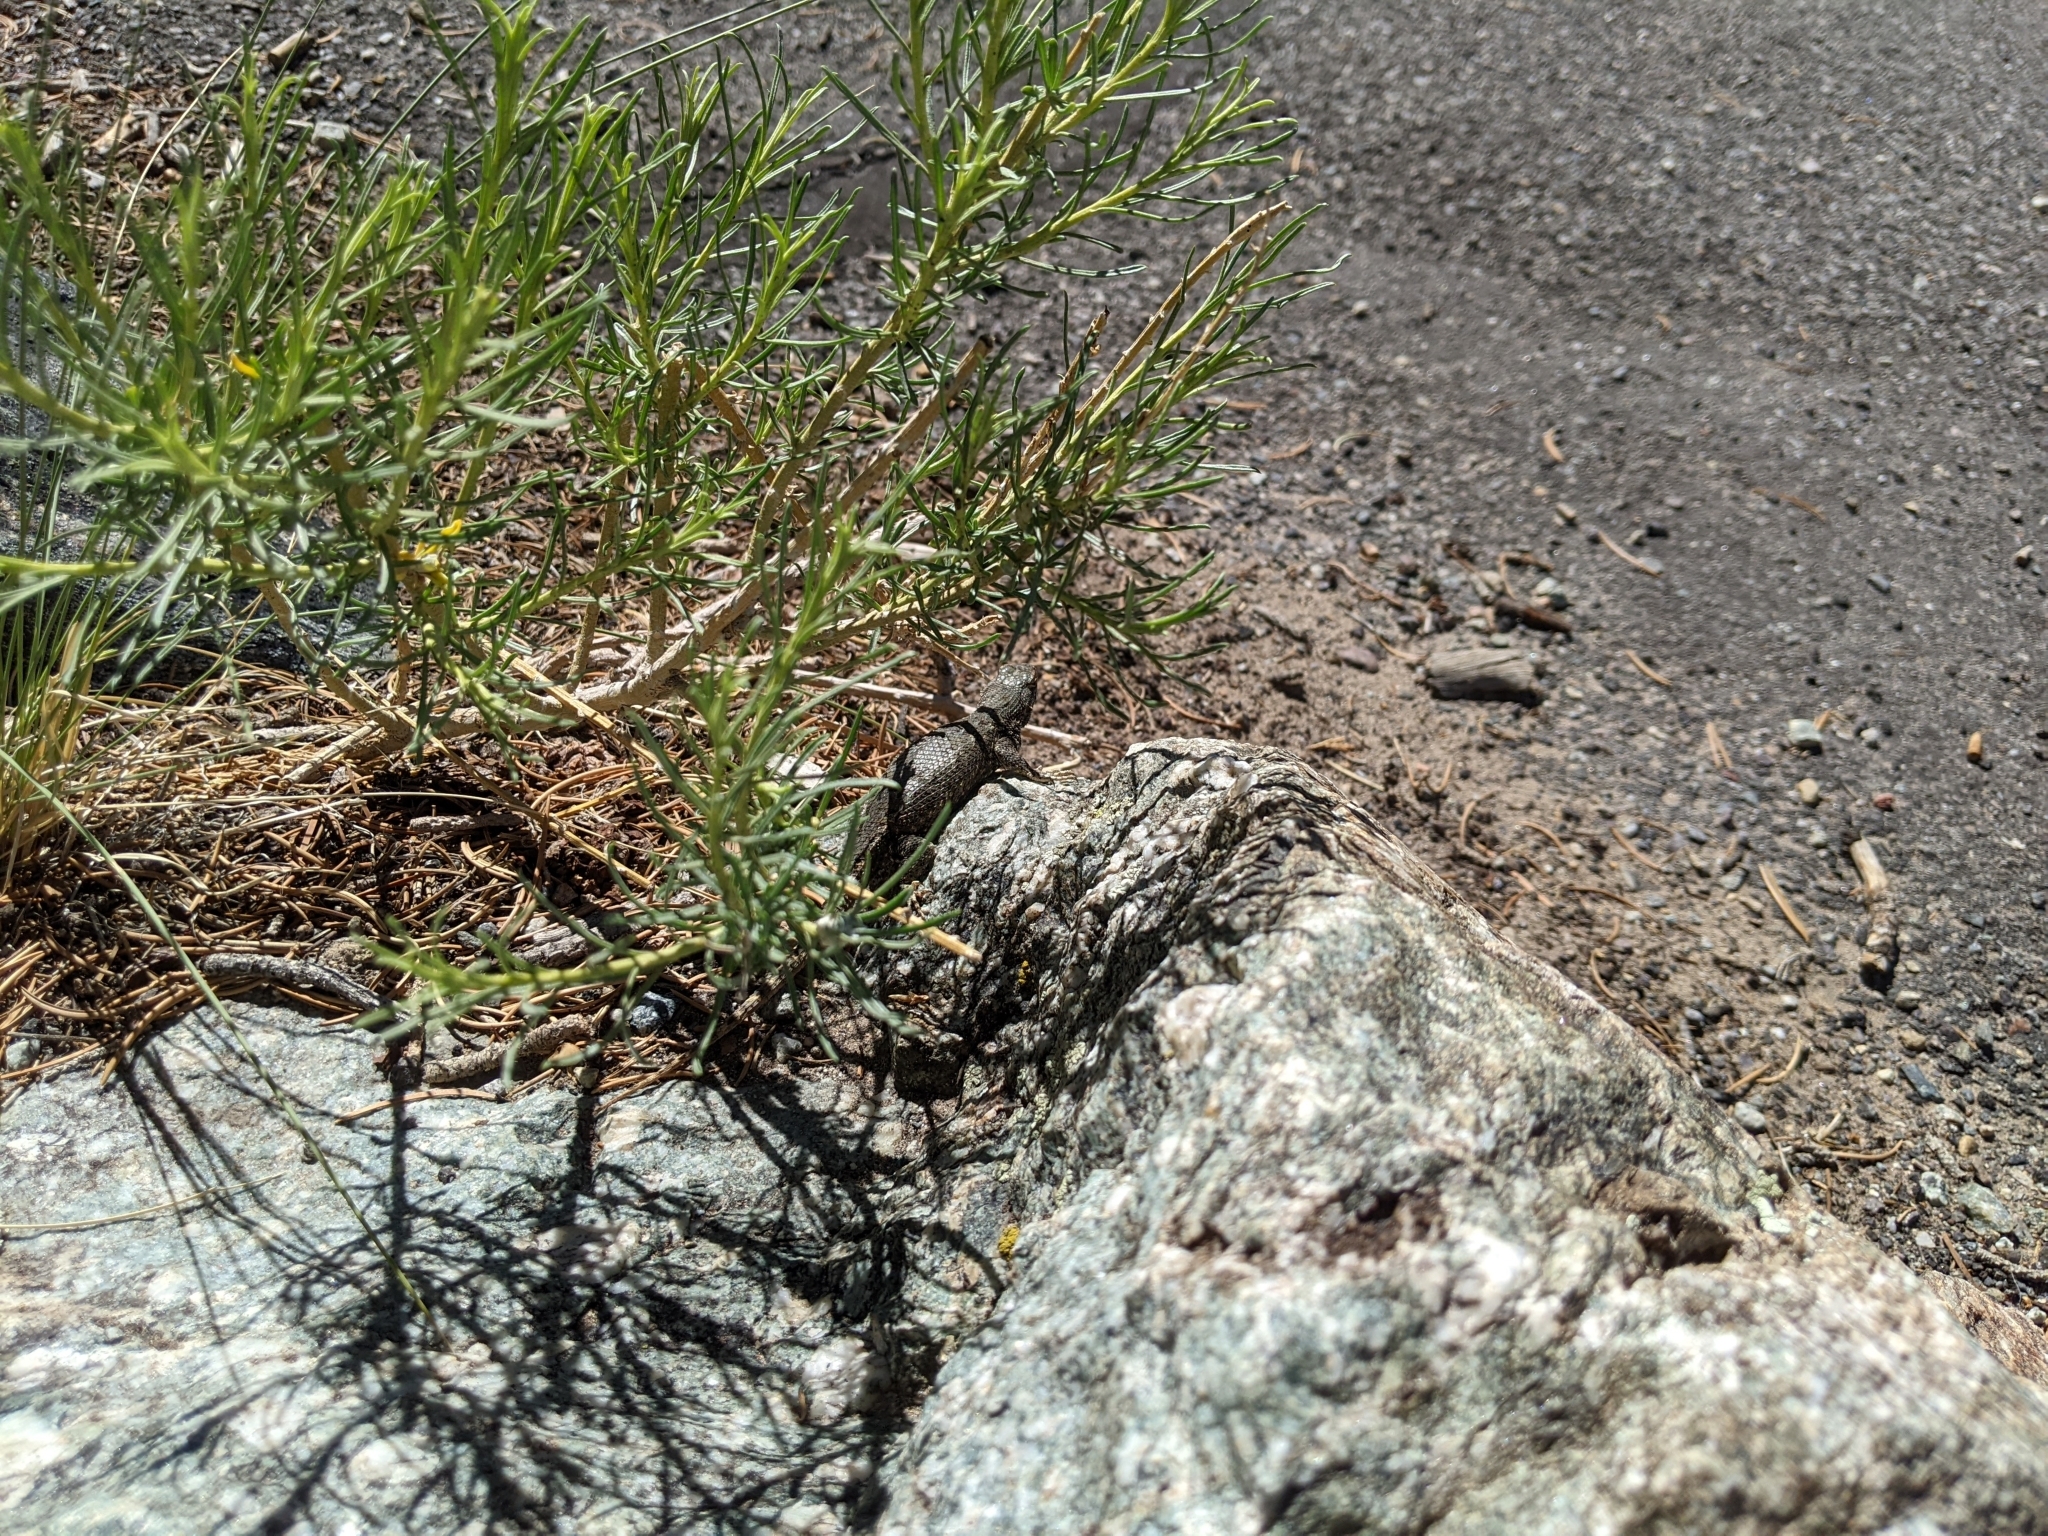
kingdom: Animalia
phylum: Chordata
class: Squamata
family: Phrynosomatidae
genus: Sceloporus
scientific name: Sceloporus tristichus
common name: Plateau fence lizard
